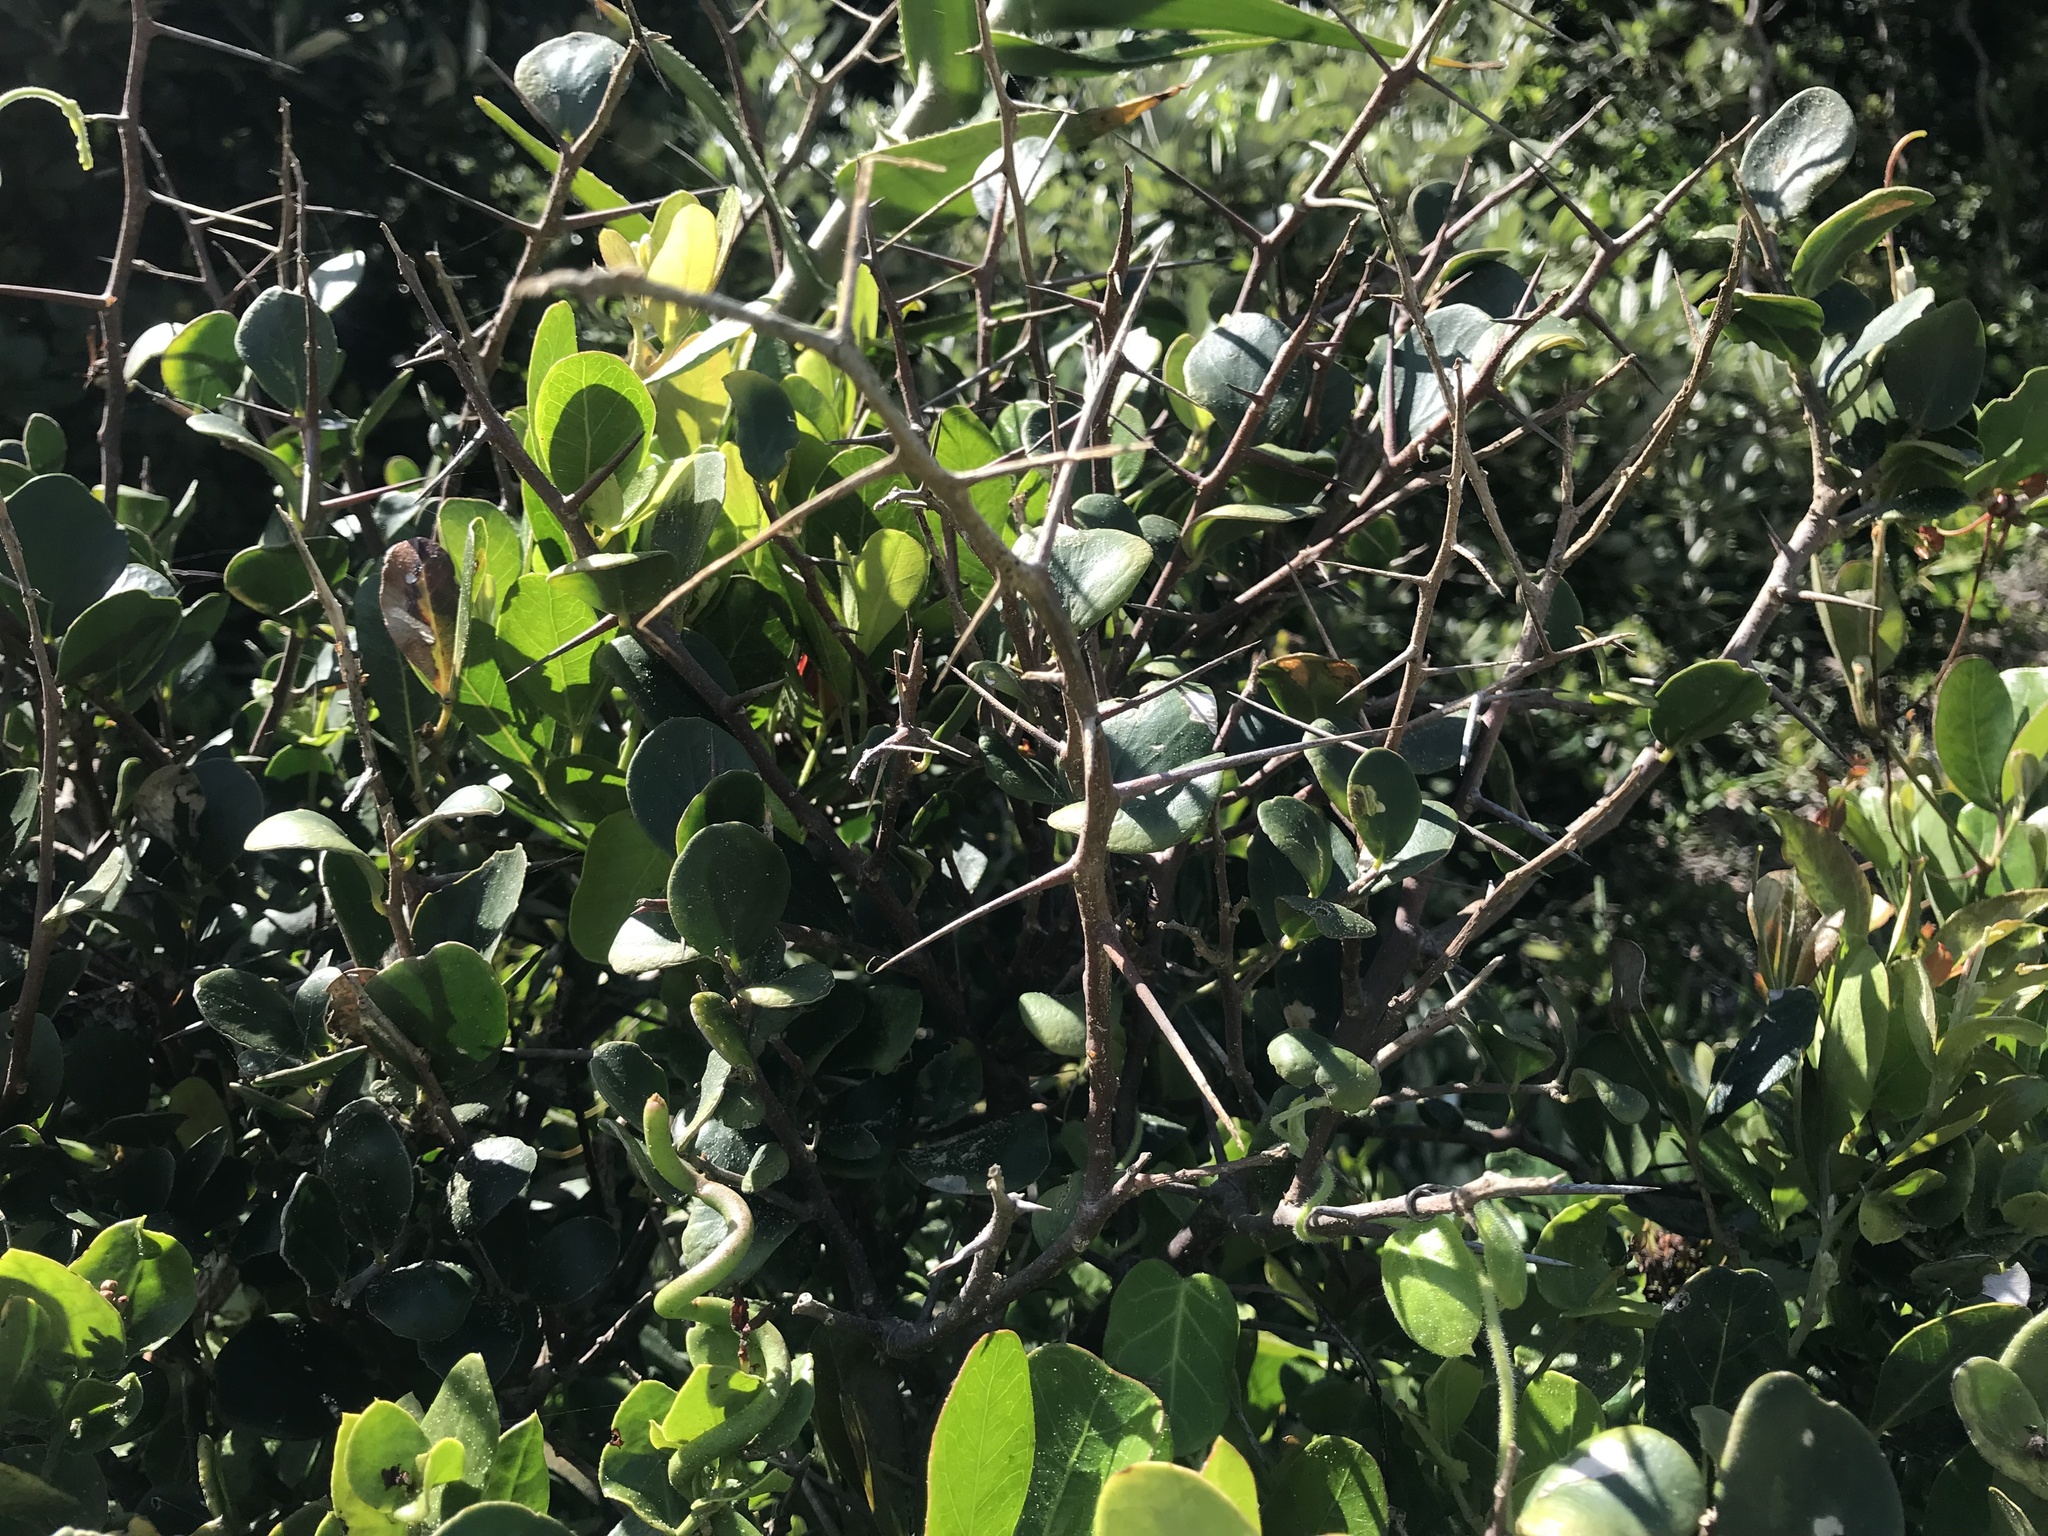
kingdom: Plantae
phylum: Tracheophyta
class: Magnoliopsida
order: Malpighiales
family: Salicaceae
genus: Dovyalis
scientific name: Dovyalis rotundifolia
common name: Dune sourberry
